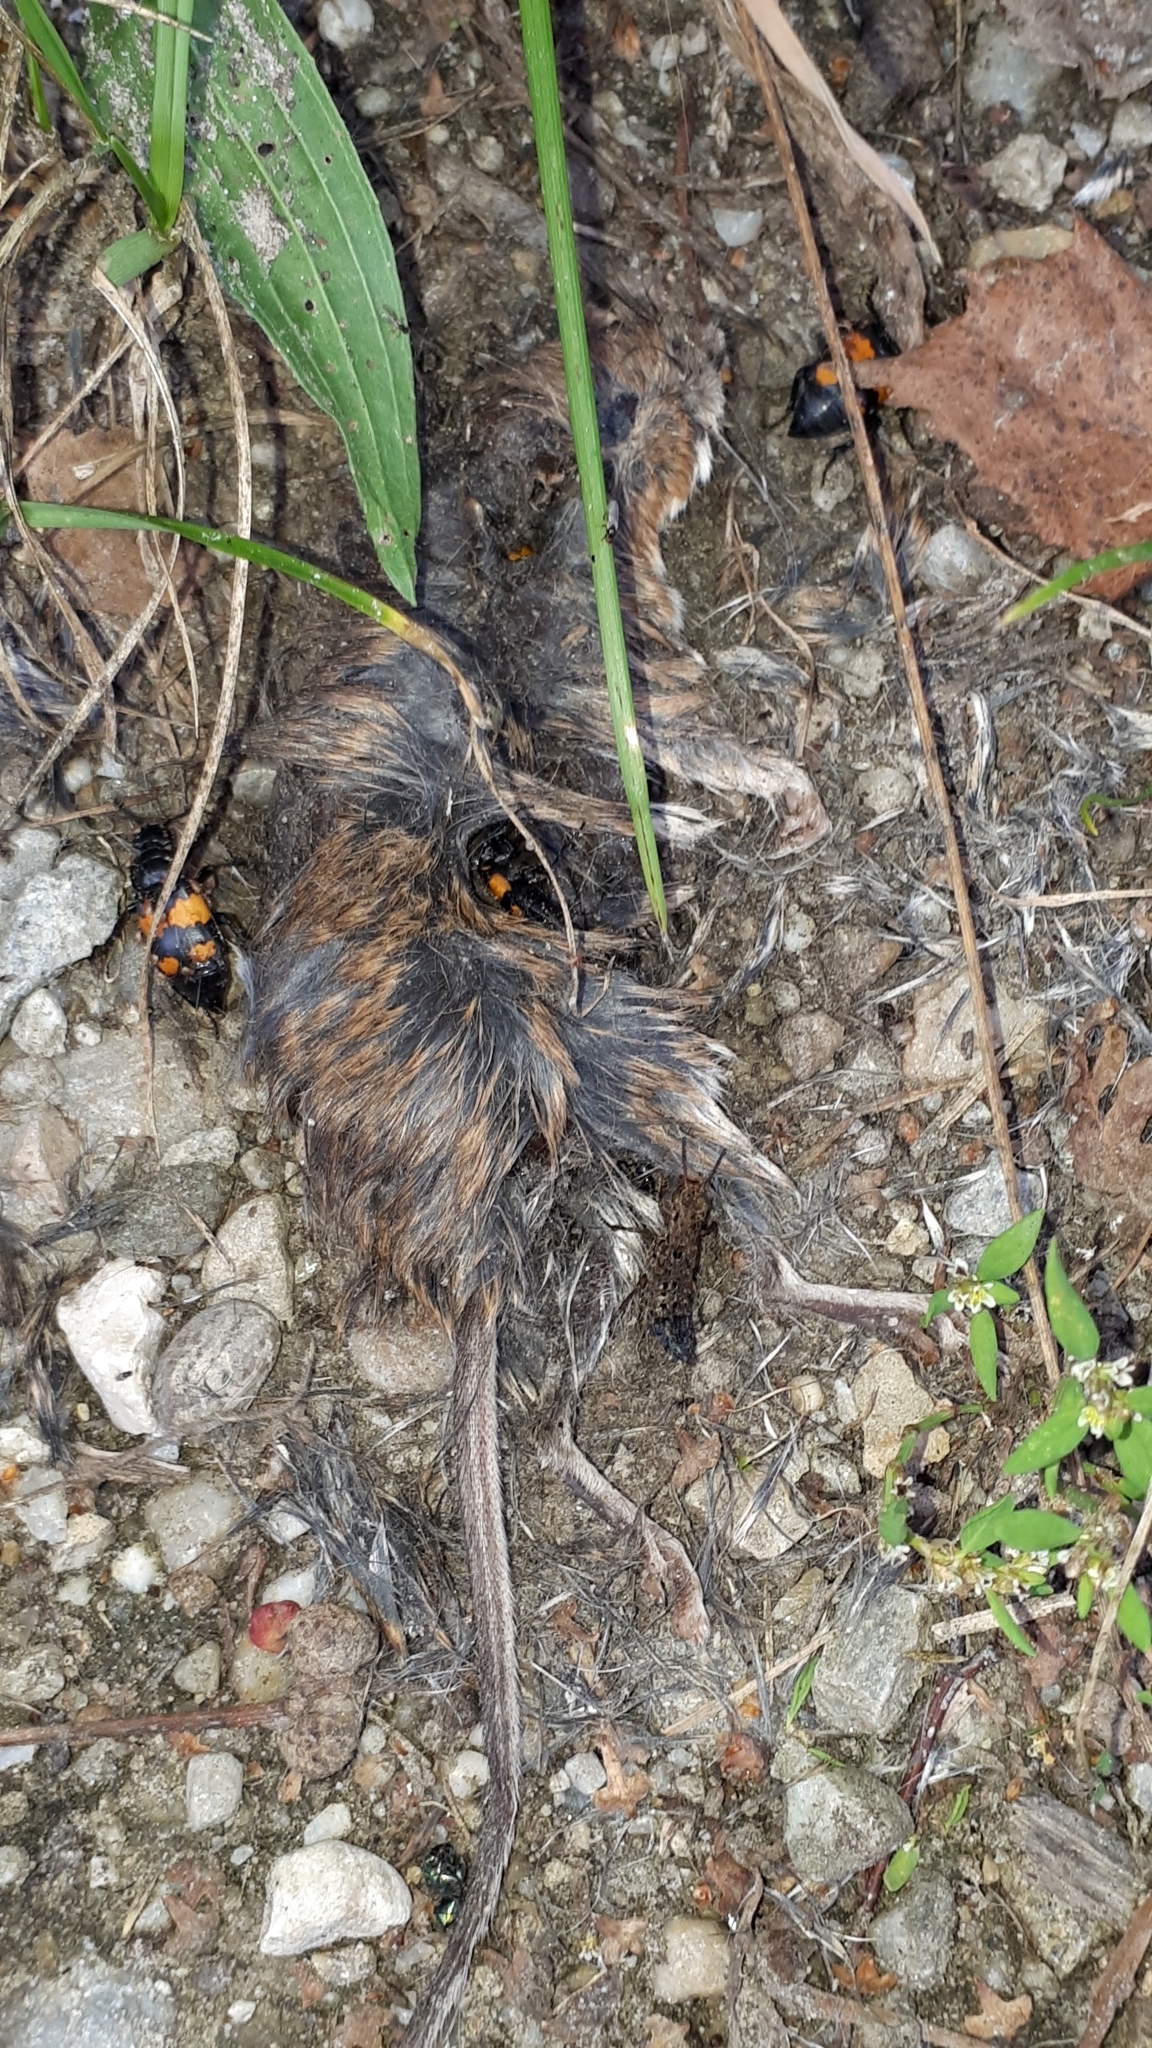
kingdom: Animalia
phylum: Arthropoda
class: Insecta
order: Coleoptera
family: Staphylinidae
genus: Ontholestes
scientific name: Ontholestes tessellatus
